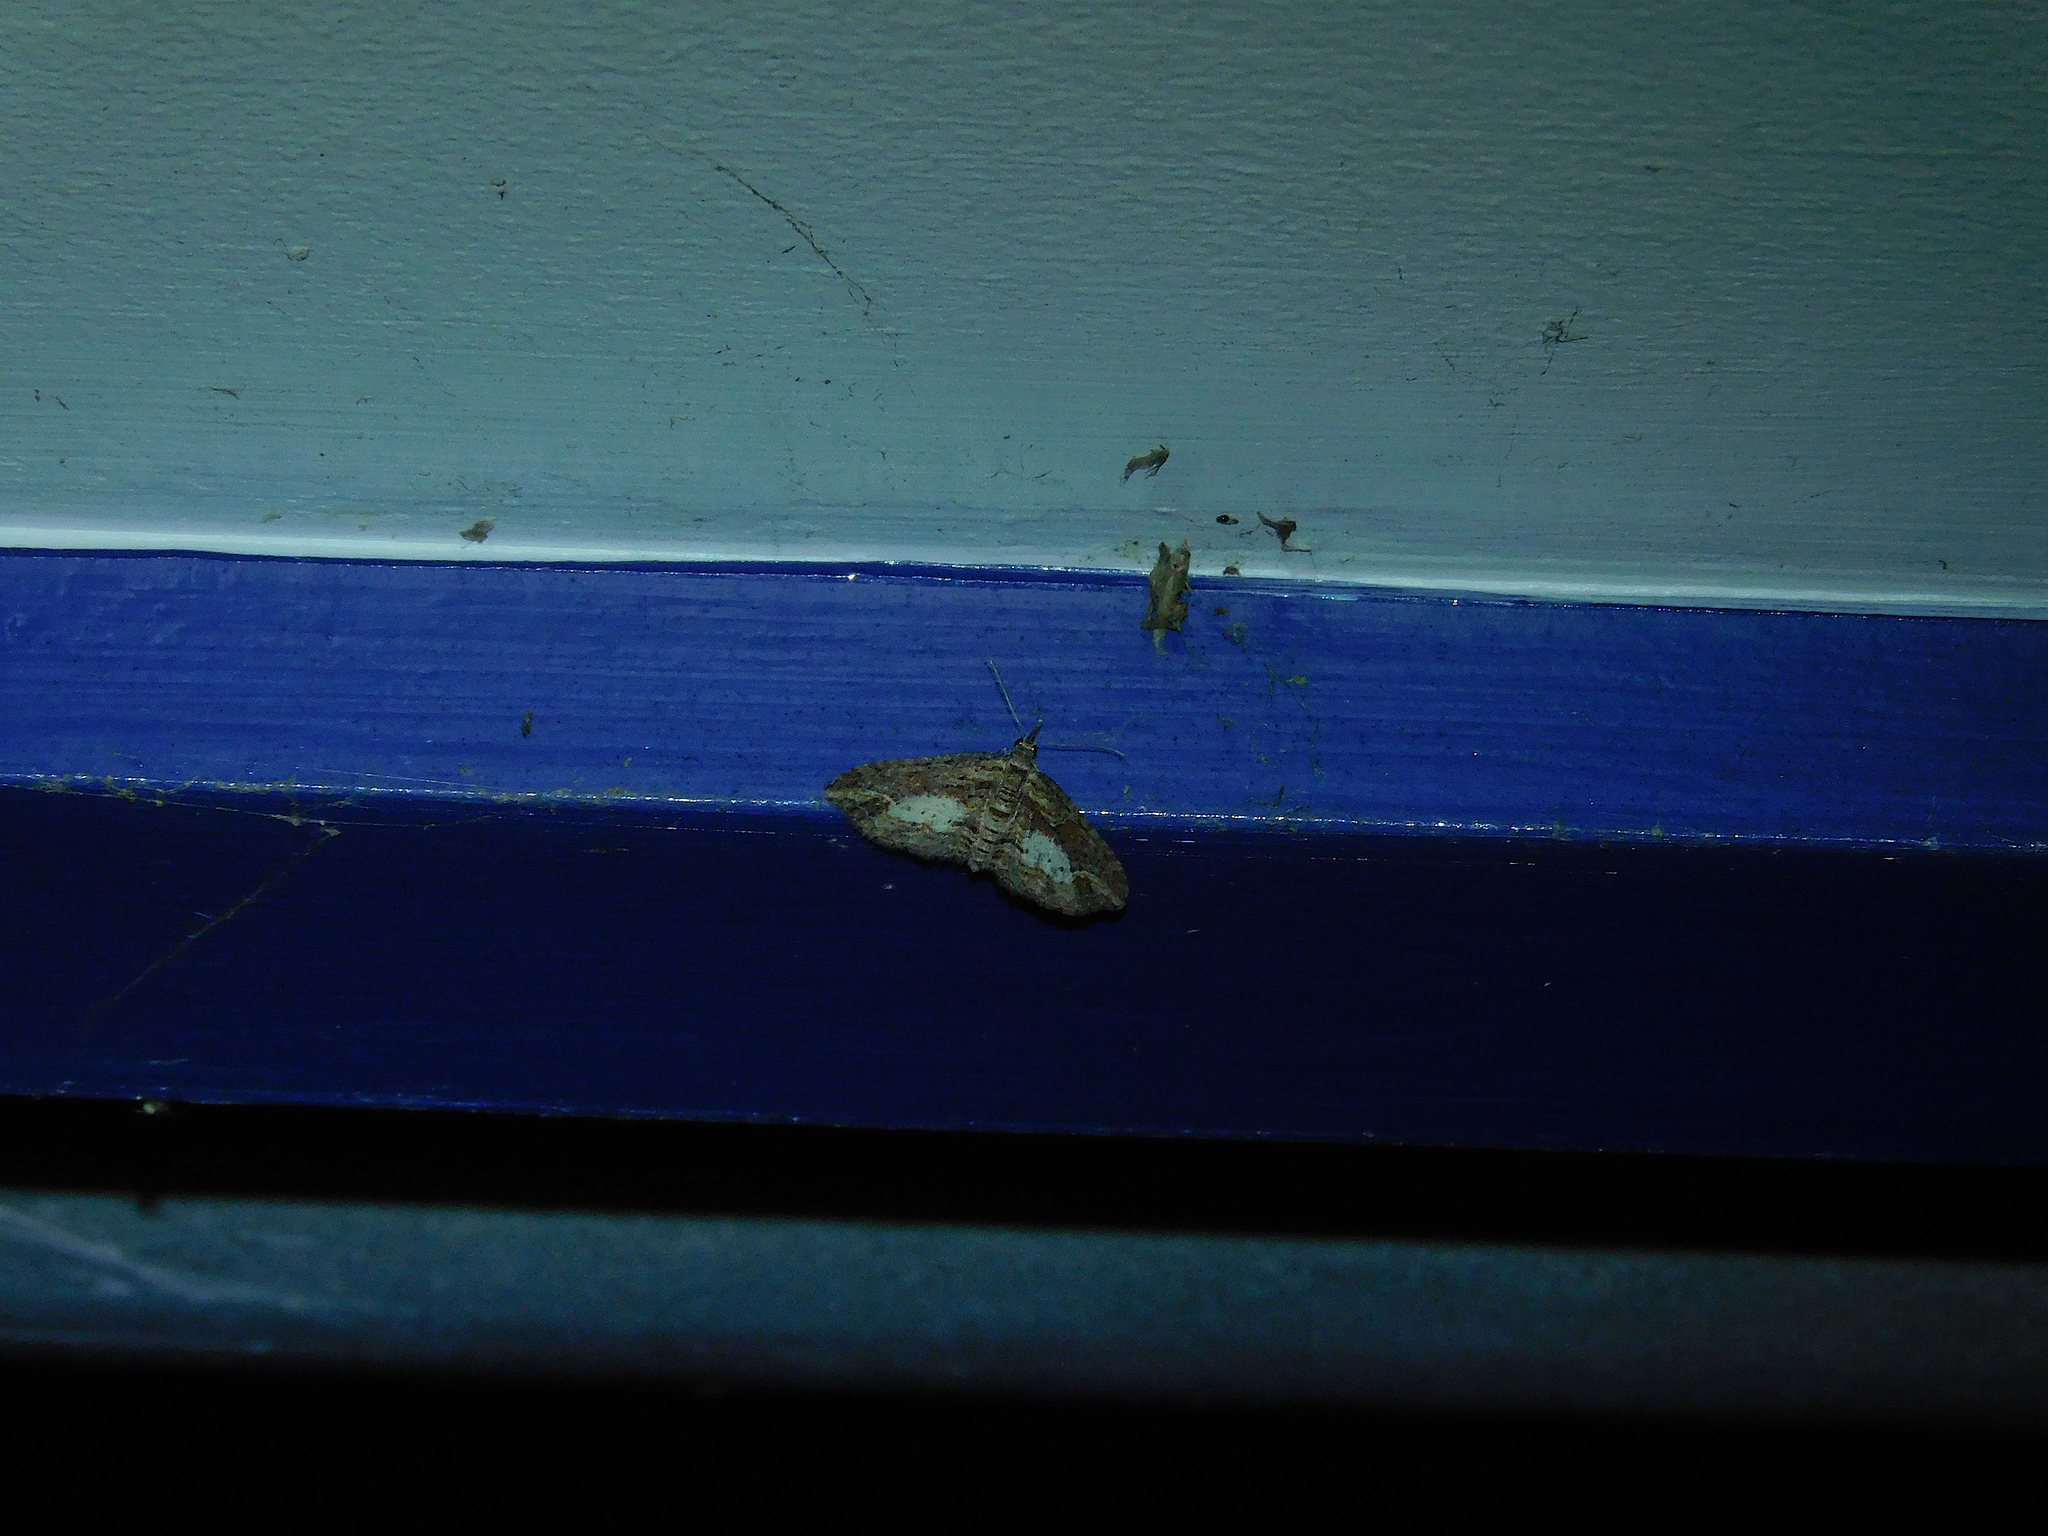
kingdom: Animalia
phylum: Arthropoda
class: Insecta
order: Lepidoptera
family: Geometridae
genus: Chloroclystis
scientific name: Chloroclystis filata
